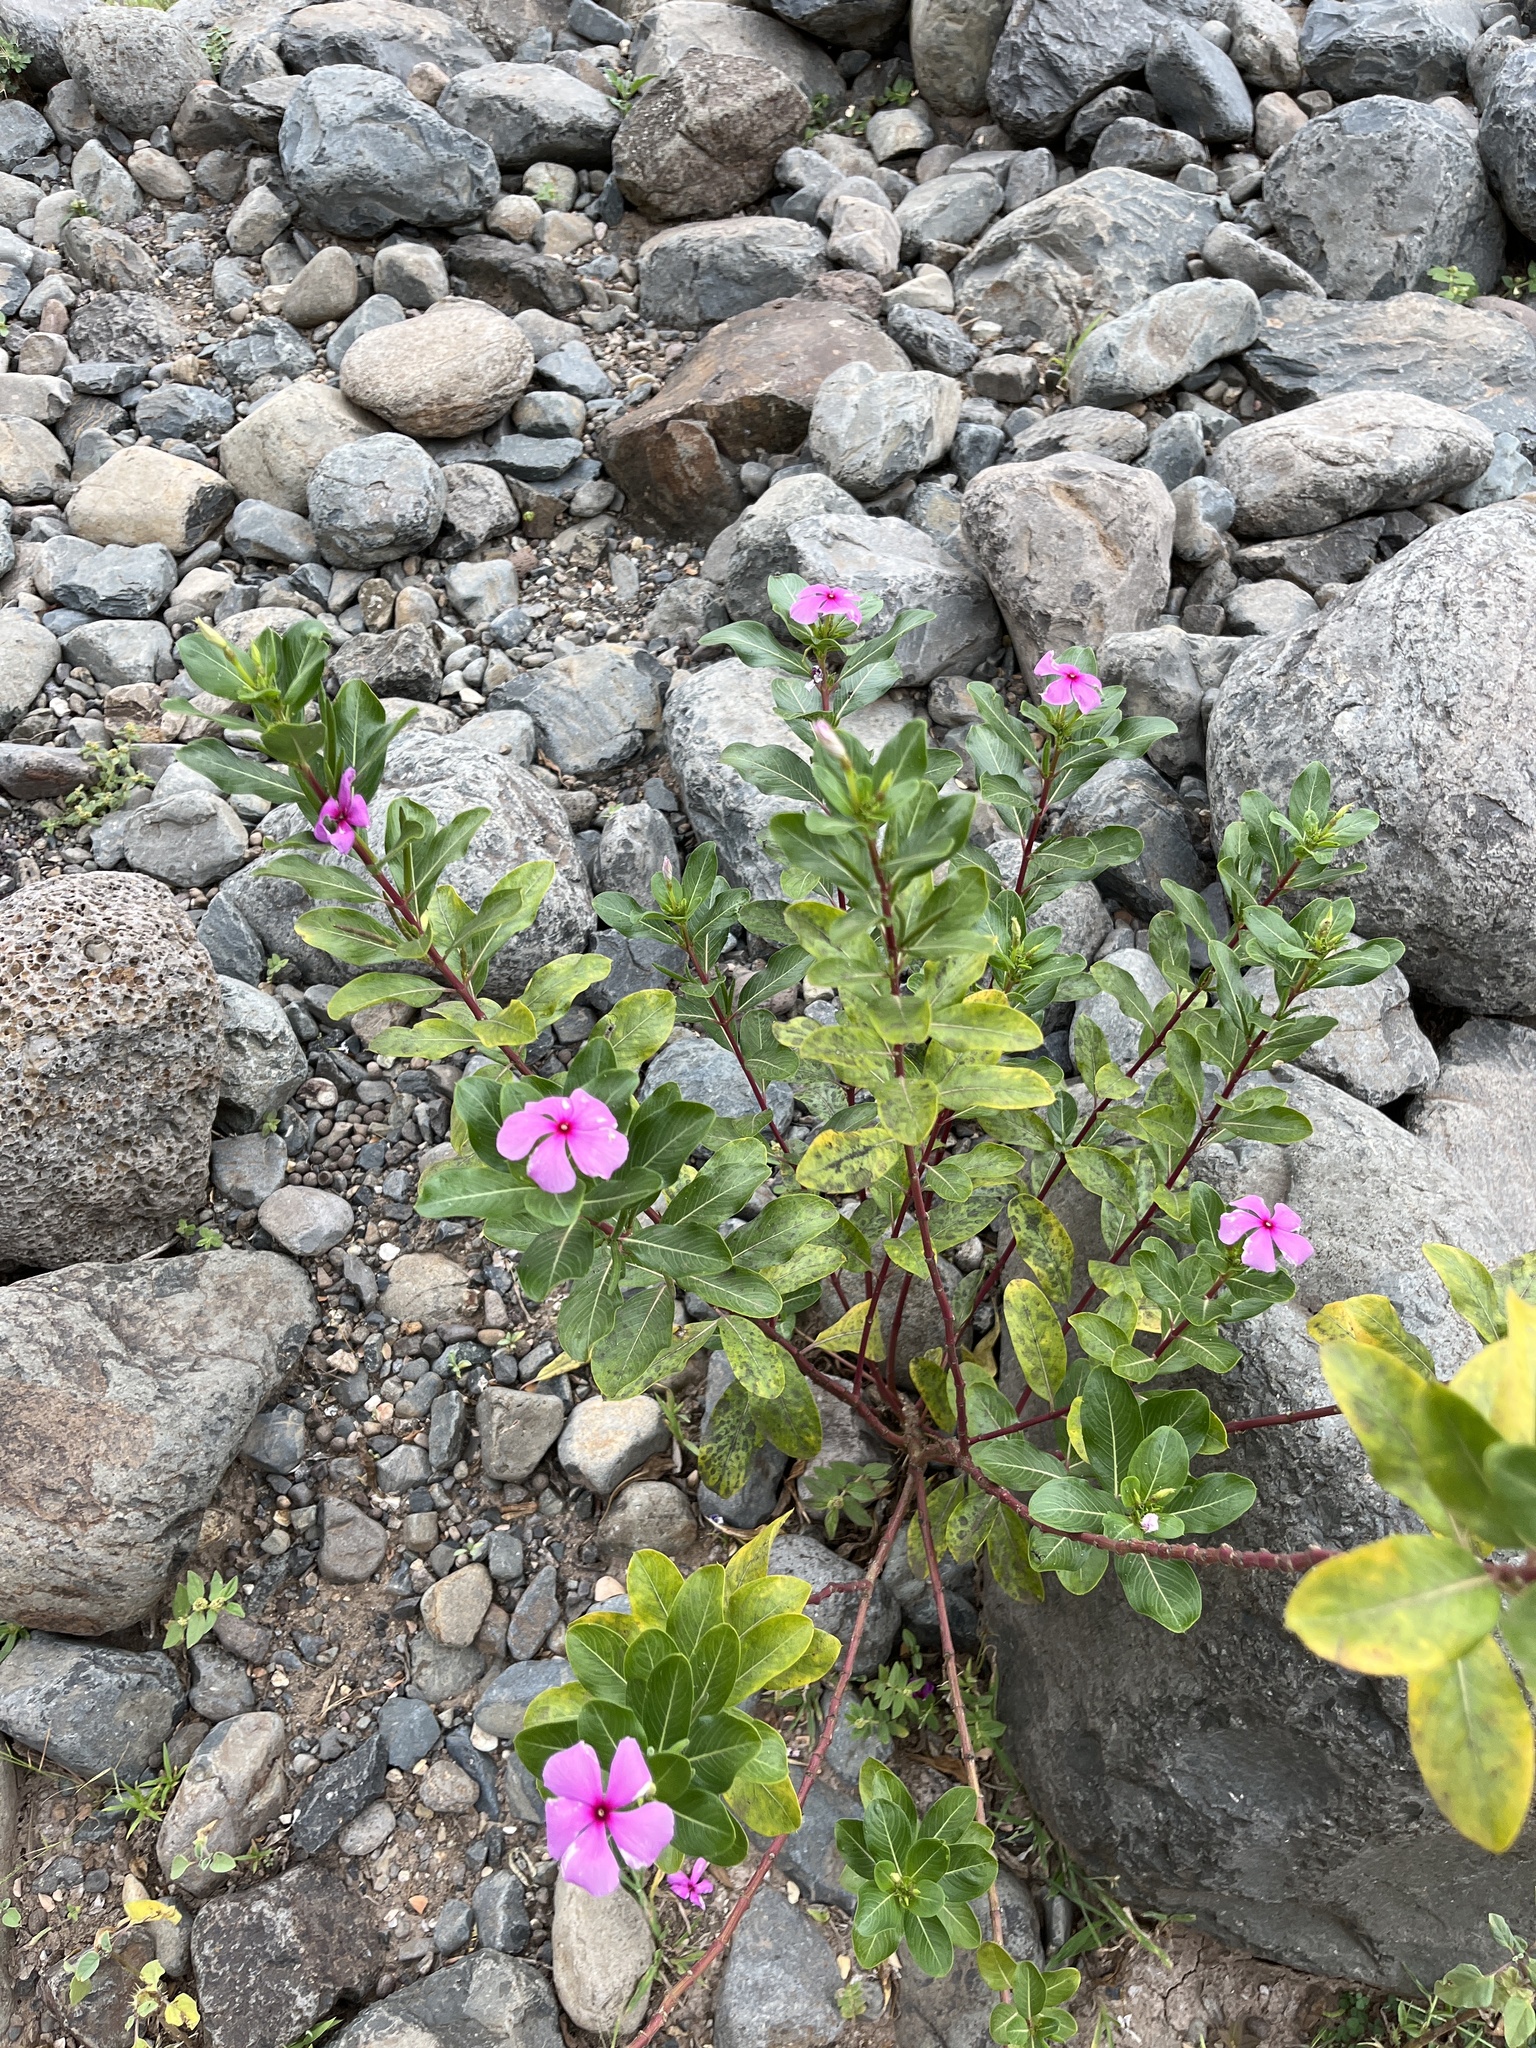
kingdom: Plantae
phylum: Tracheophyta
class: Magnoliopsida
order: Gentianales
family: Apocynaceae
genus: Catharanthus
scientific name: Catharanthus roseus
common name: Madagascar periwinkle
